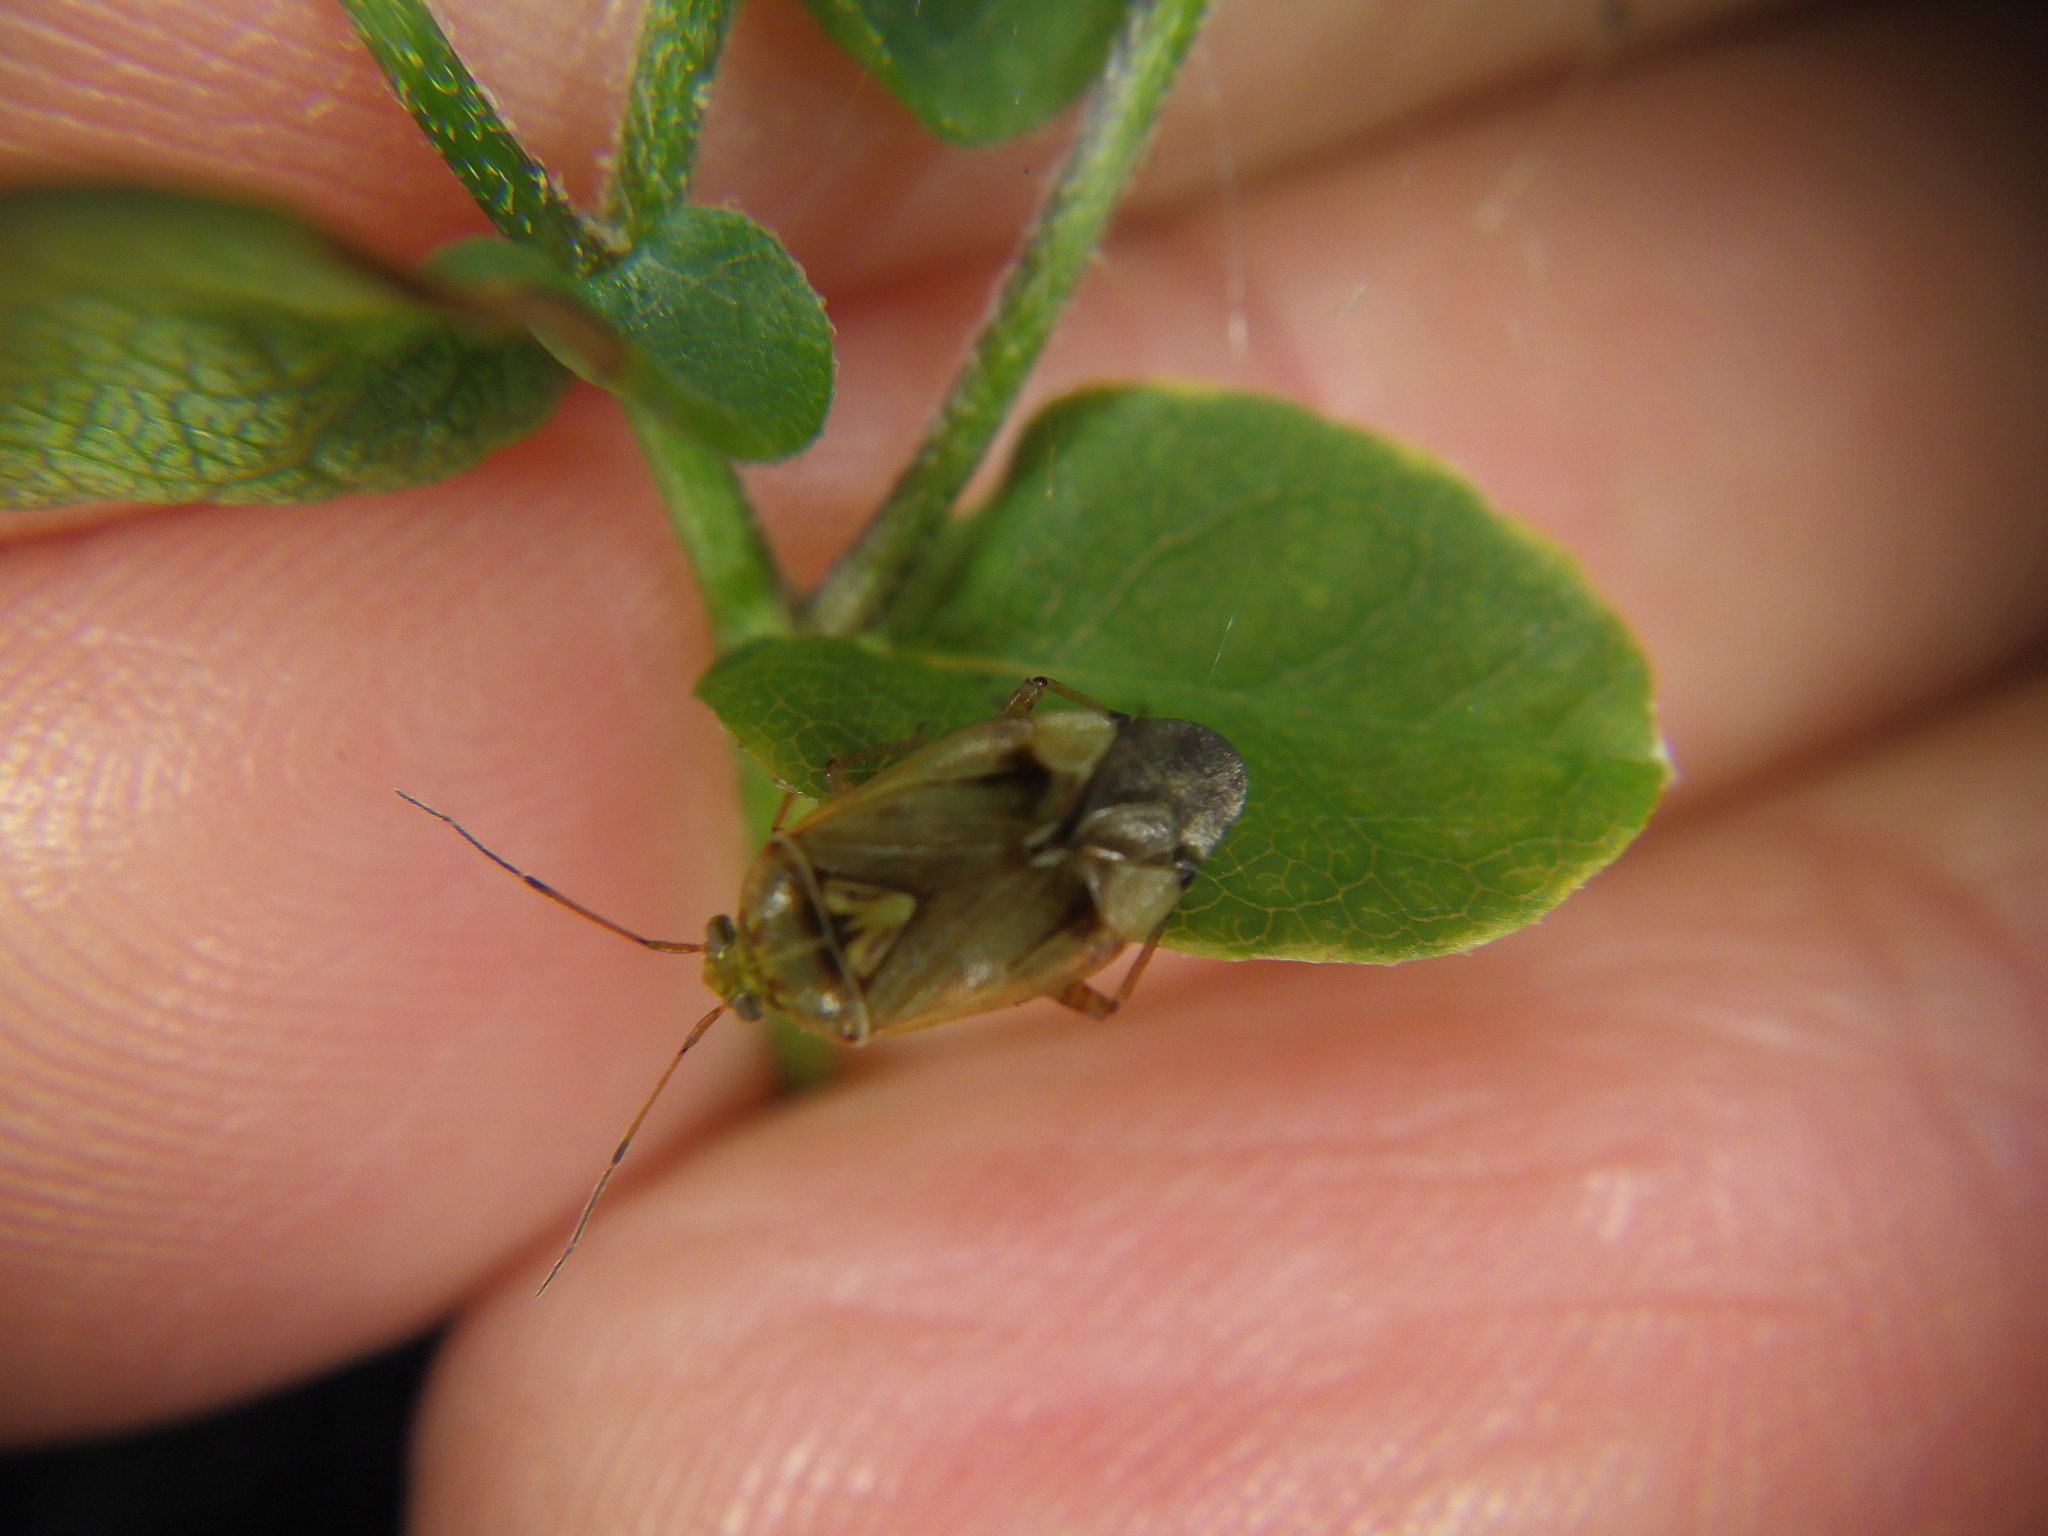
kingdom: Animalia
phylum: Arthropoda
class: Insecta
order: Hemiptera
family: Miridae
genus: Lygus
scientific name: Lygus lineolaris
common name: North american tarnished plant bug
